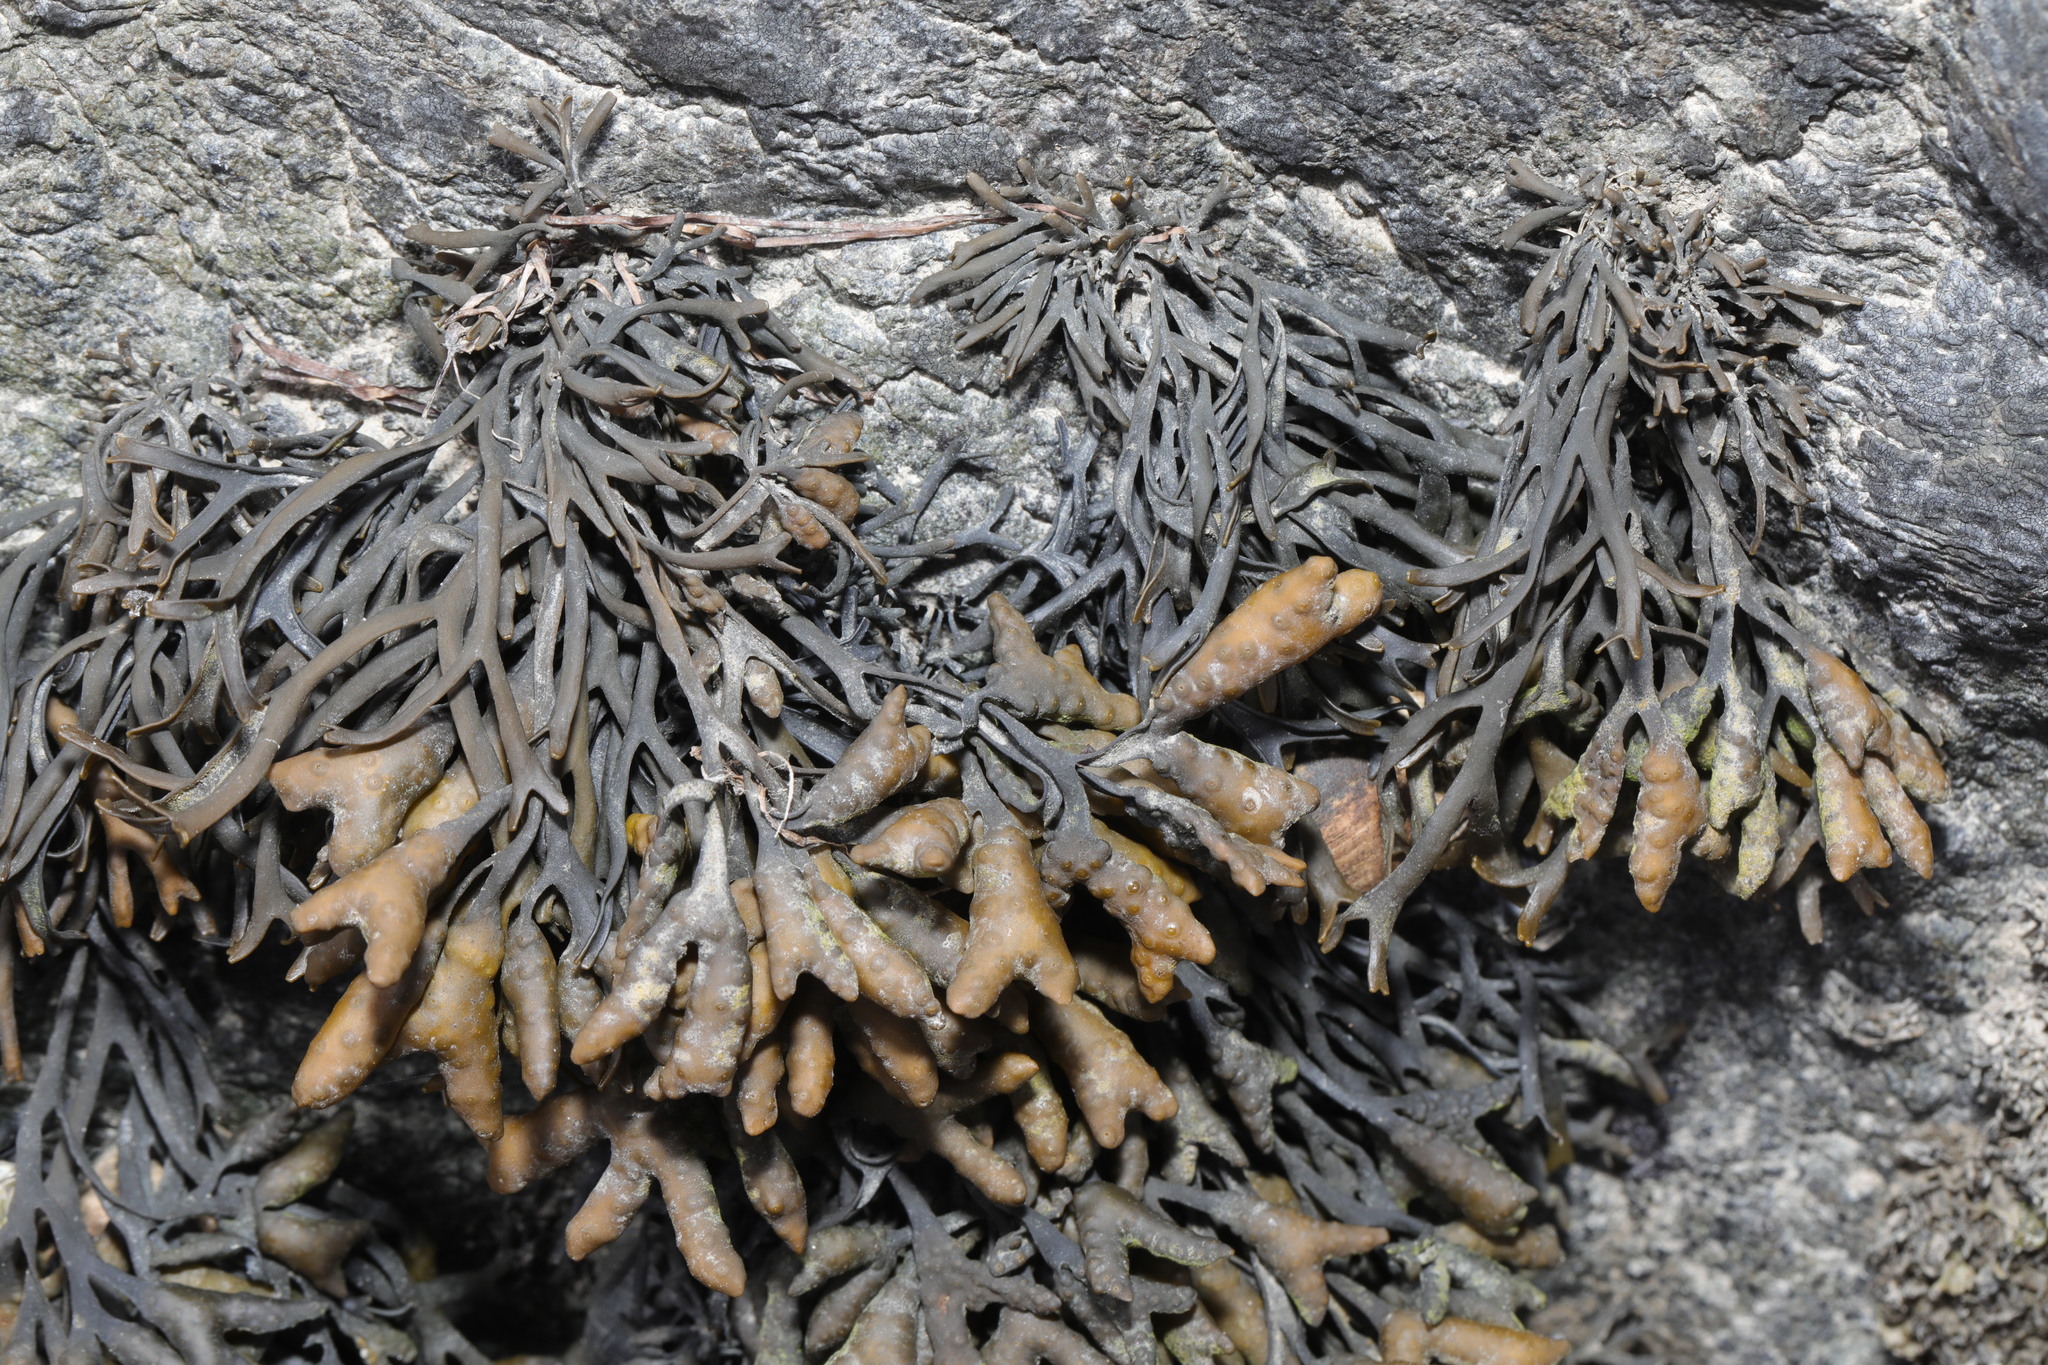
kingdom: Chromista
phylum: Ochrophyta
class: Phaeophyceae
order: Fucales
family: Fucaceae
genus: Pelvetia
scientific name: Pelvetia canaliculata
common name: Channelled wrack
